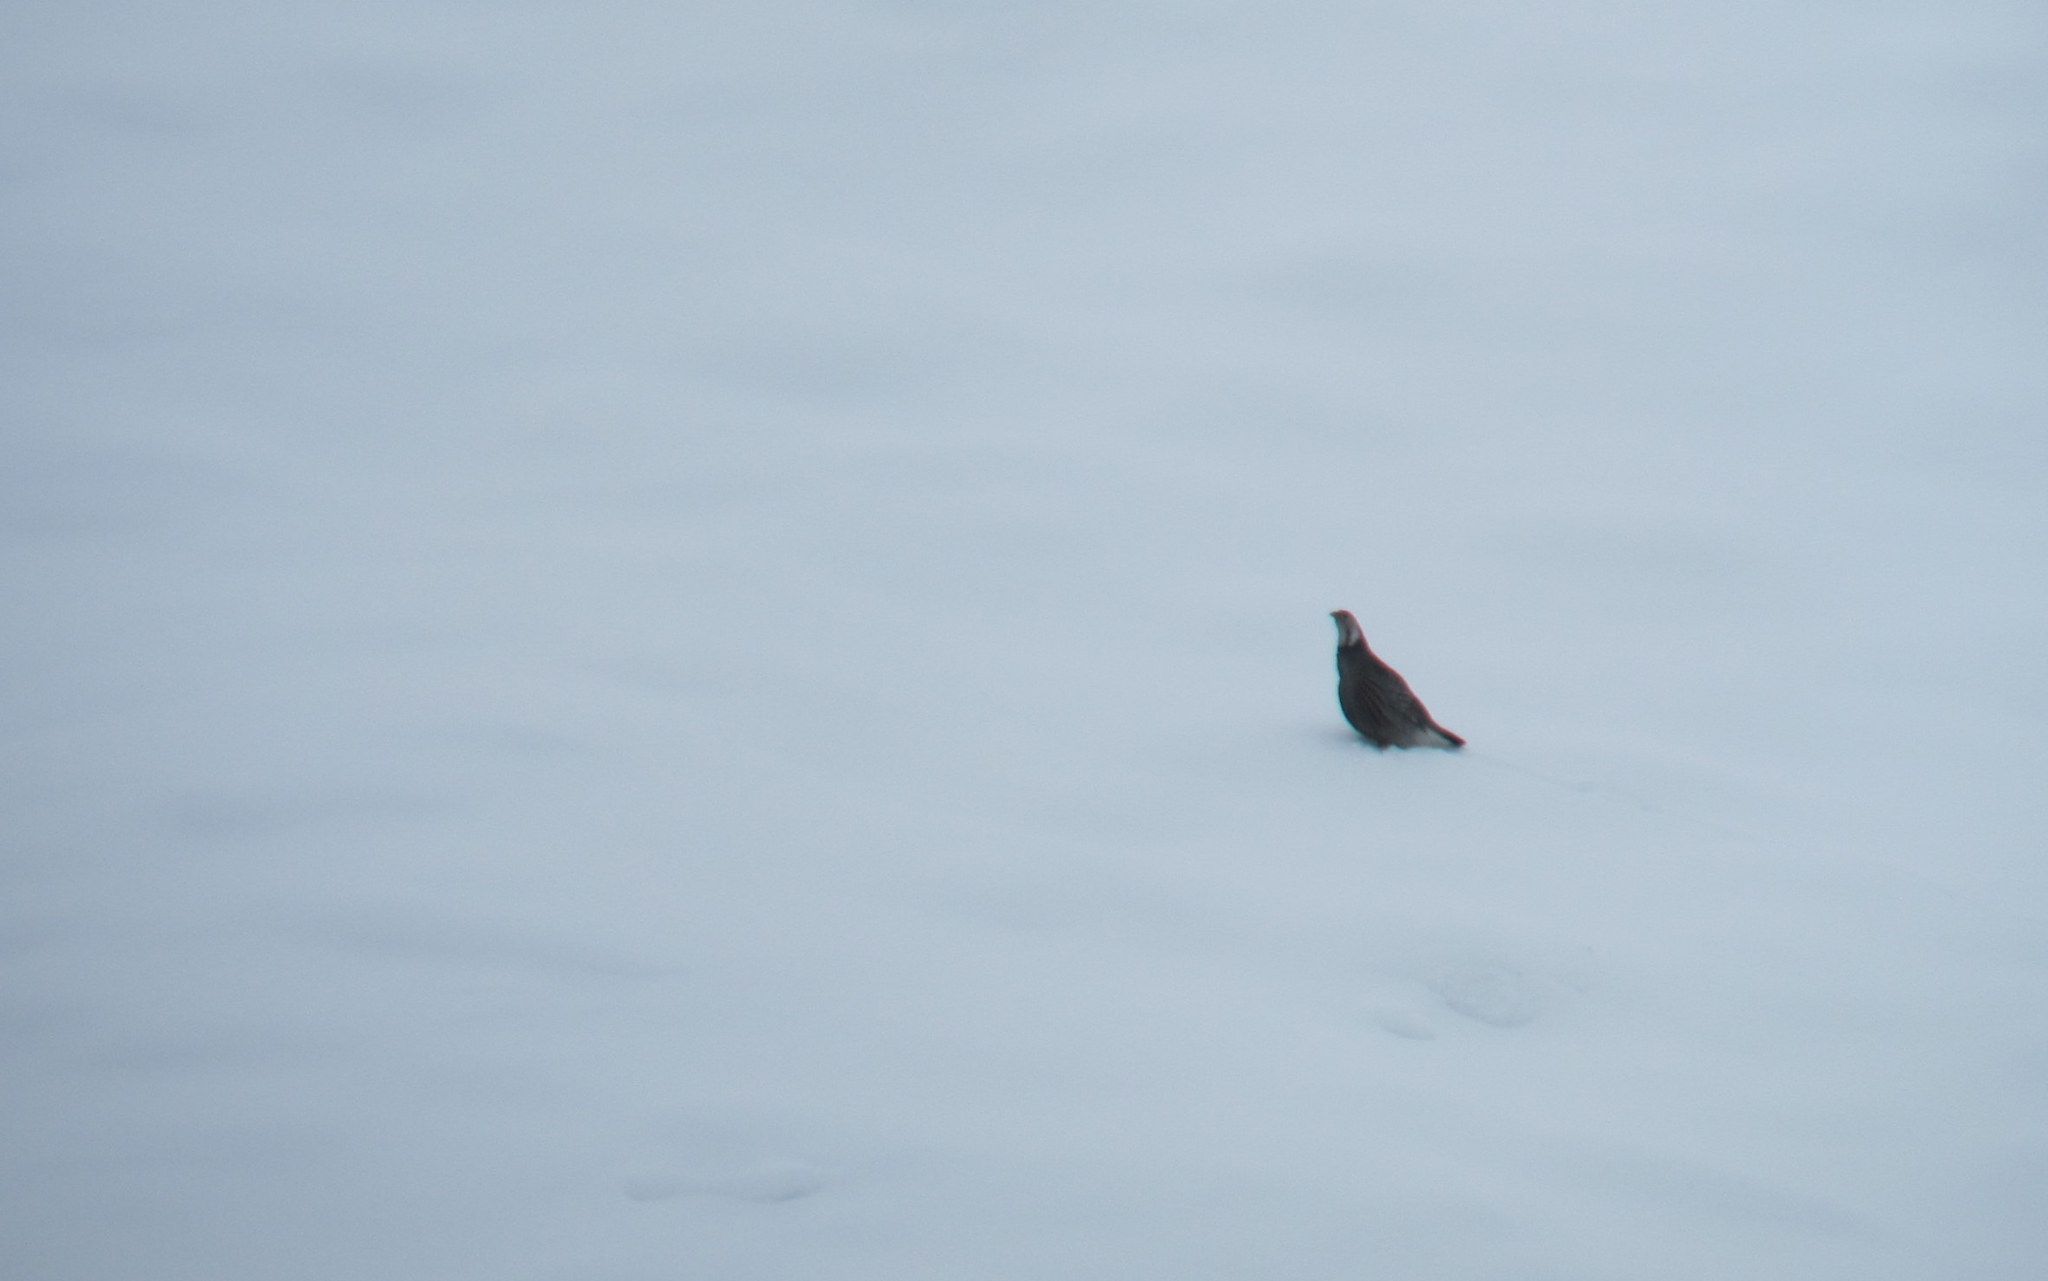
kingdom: Animalia
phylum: Chordata
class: Aves
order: Galliformes
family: Phasianidae
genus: Tetraogallus
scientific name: Tetraogallus caucasicus
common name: Caucasian snowcock
